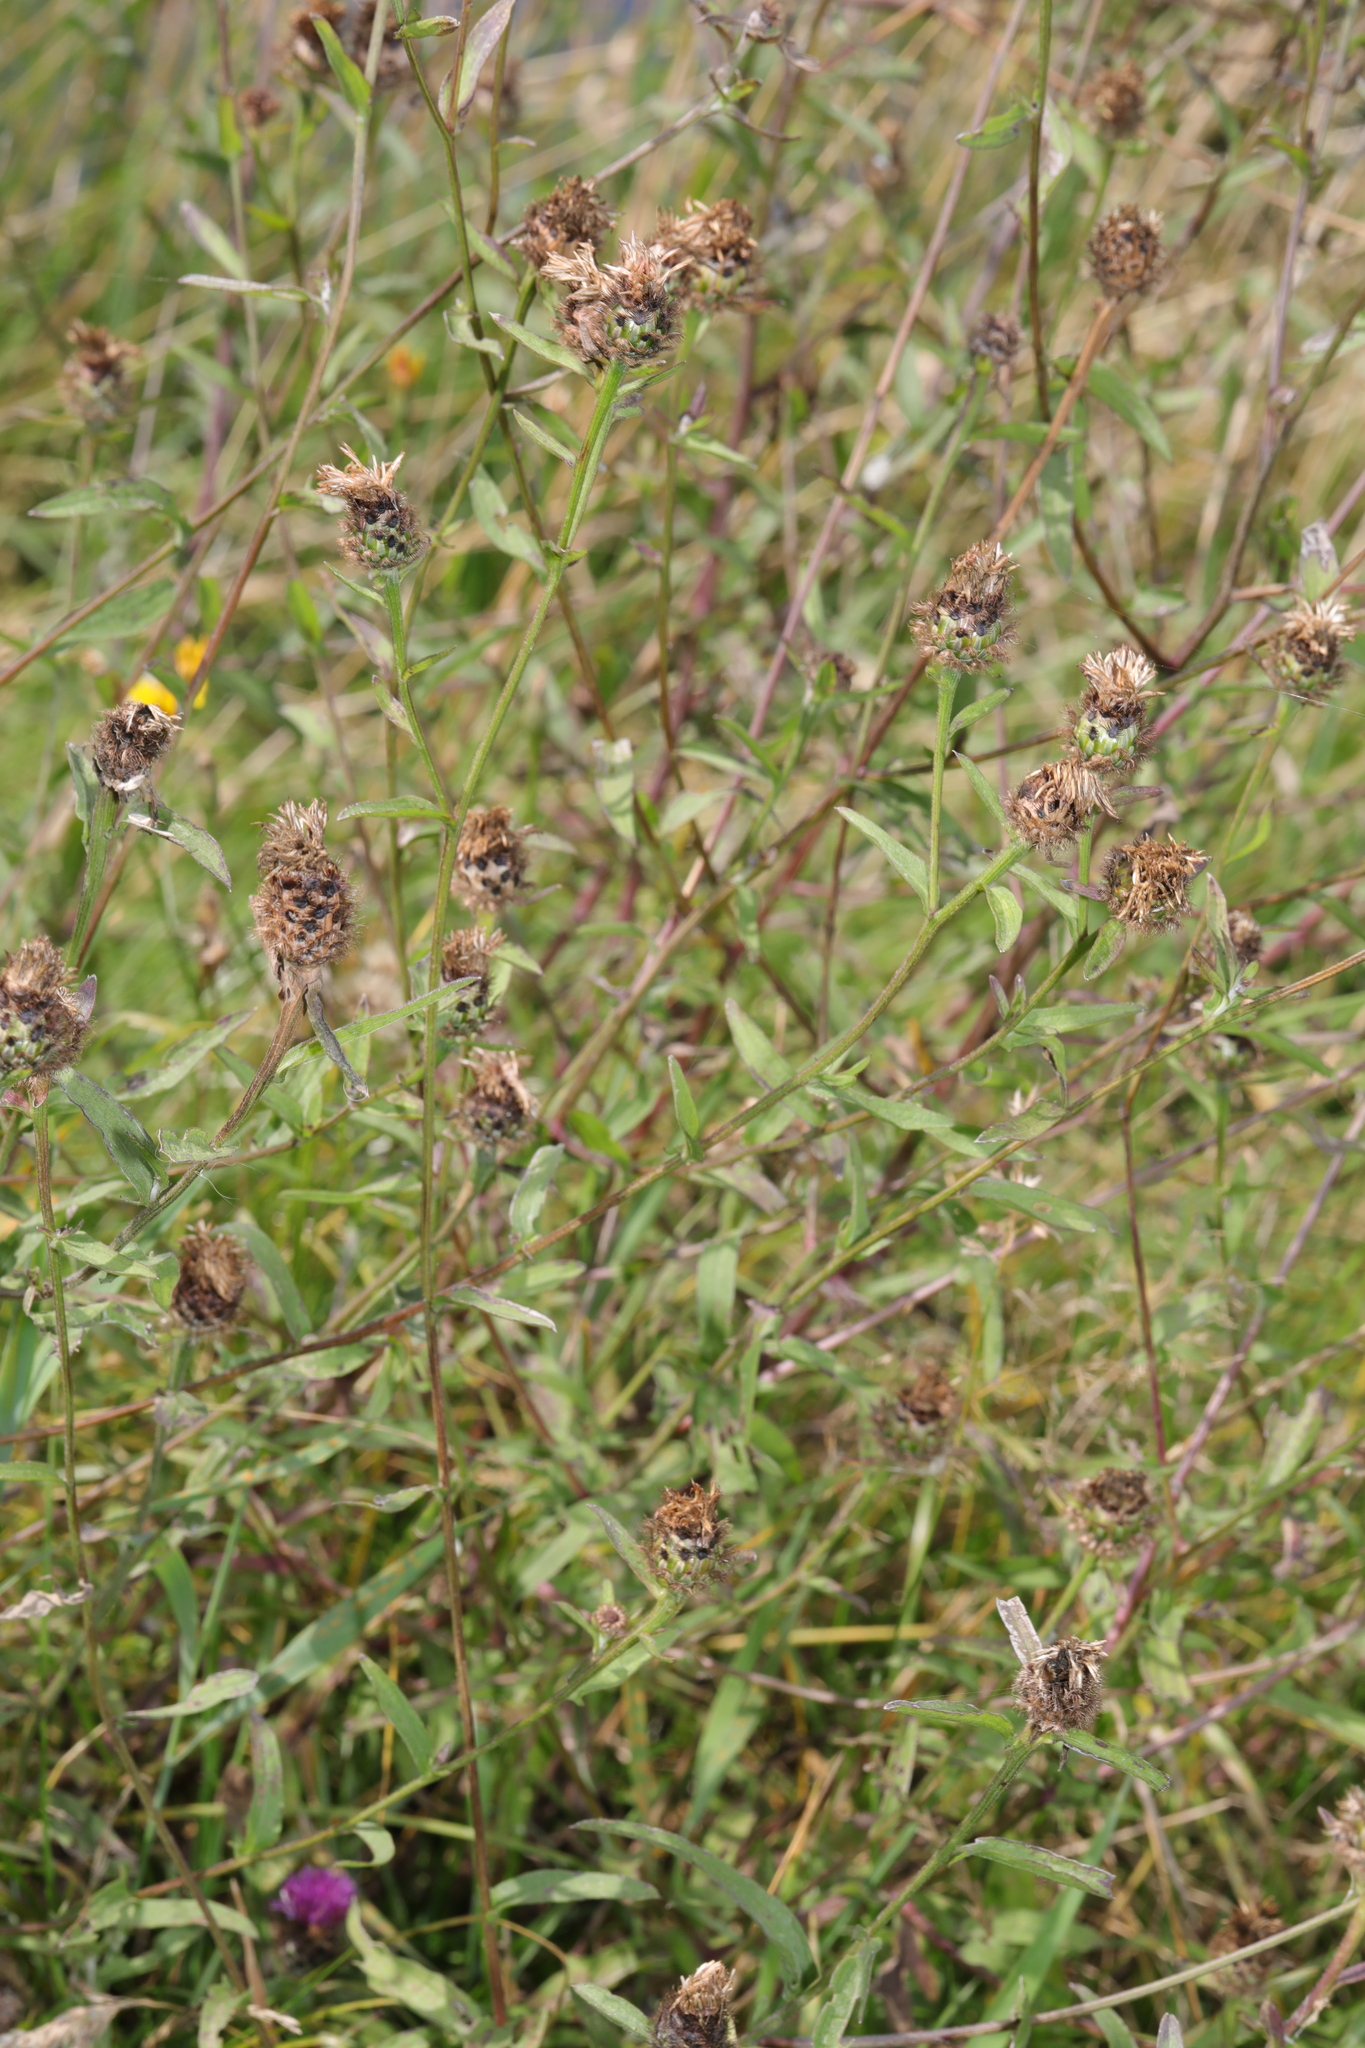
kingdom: Plantae
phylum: Tracheophyta
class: Magnoliopsida
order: Asterales
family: Asteraceae
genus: Centaurea
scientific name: Centaurea nigra
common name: Lesser knapweed
